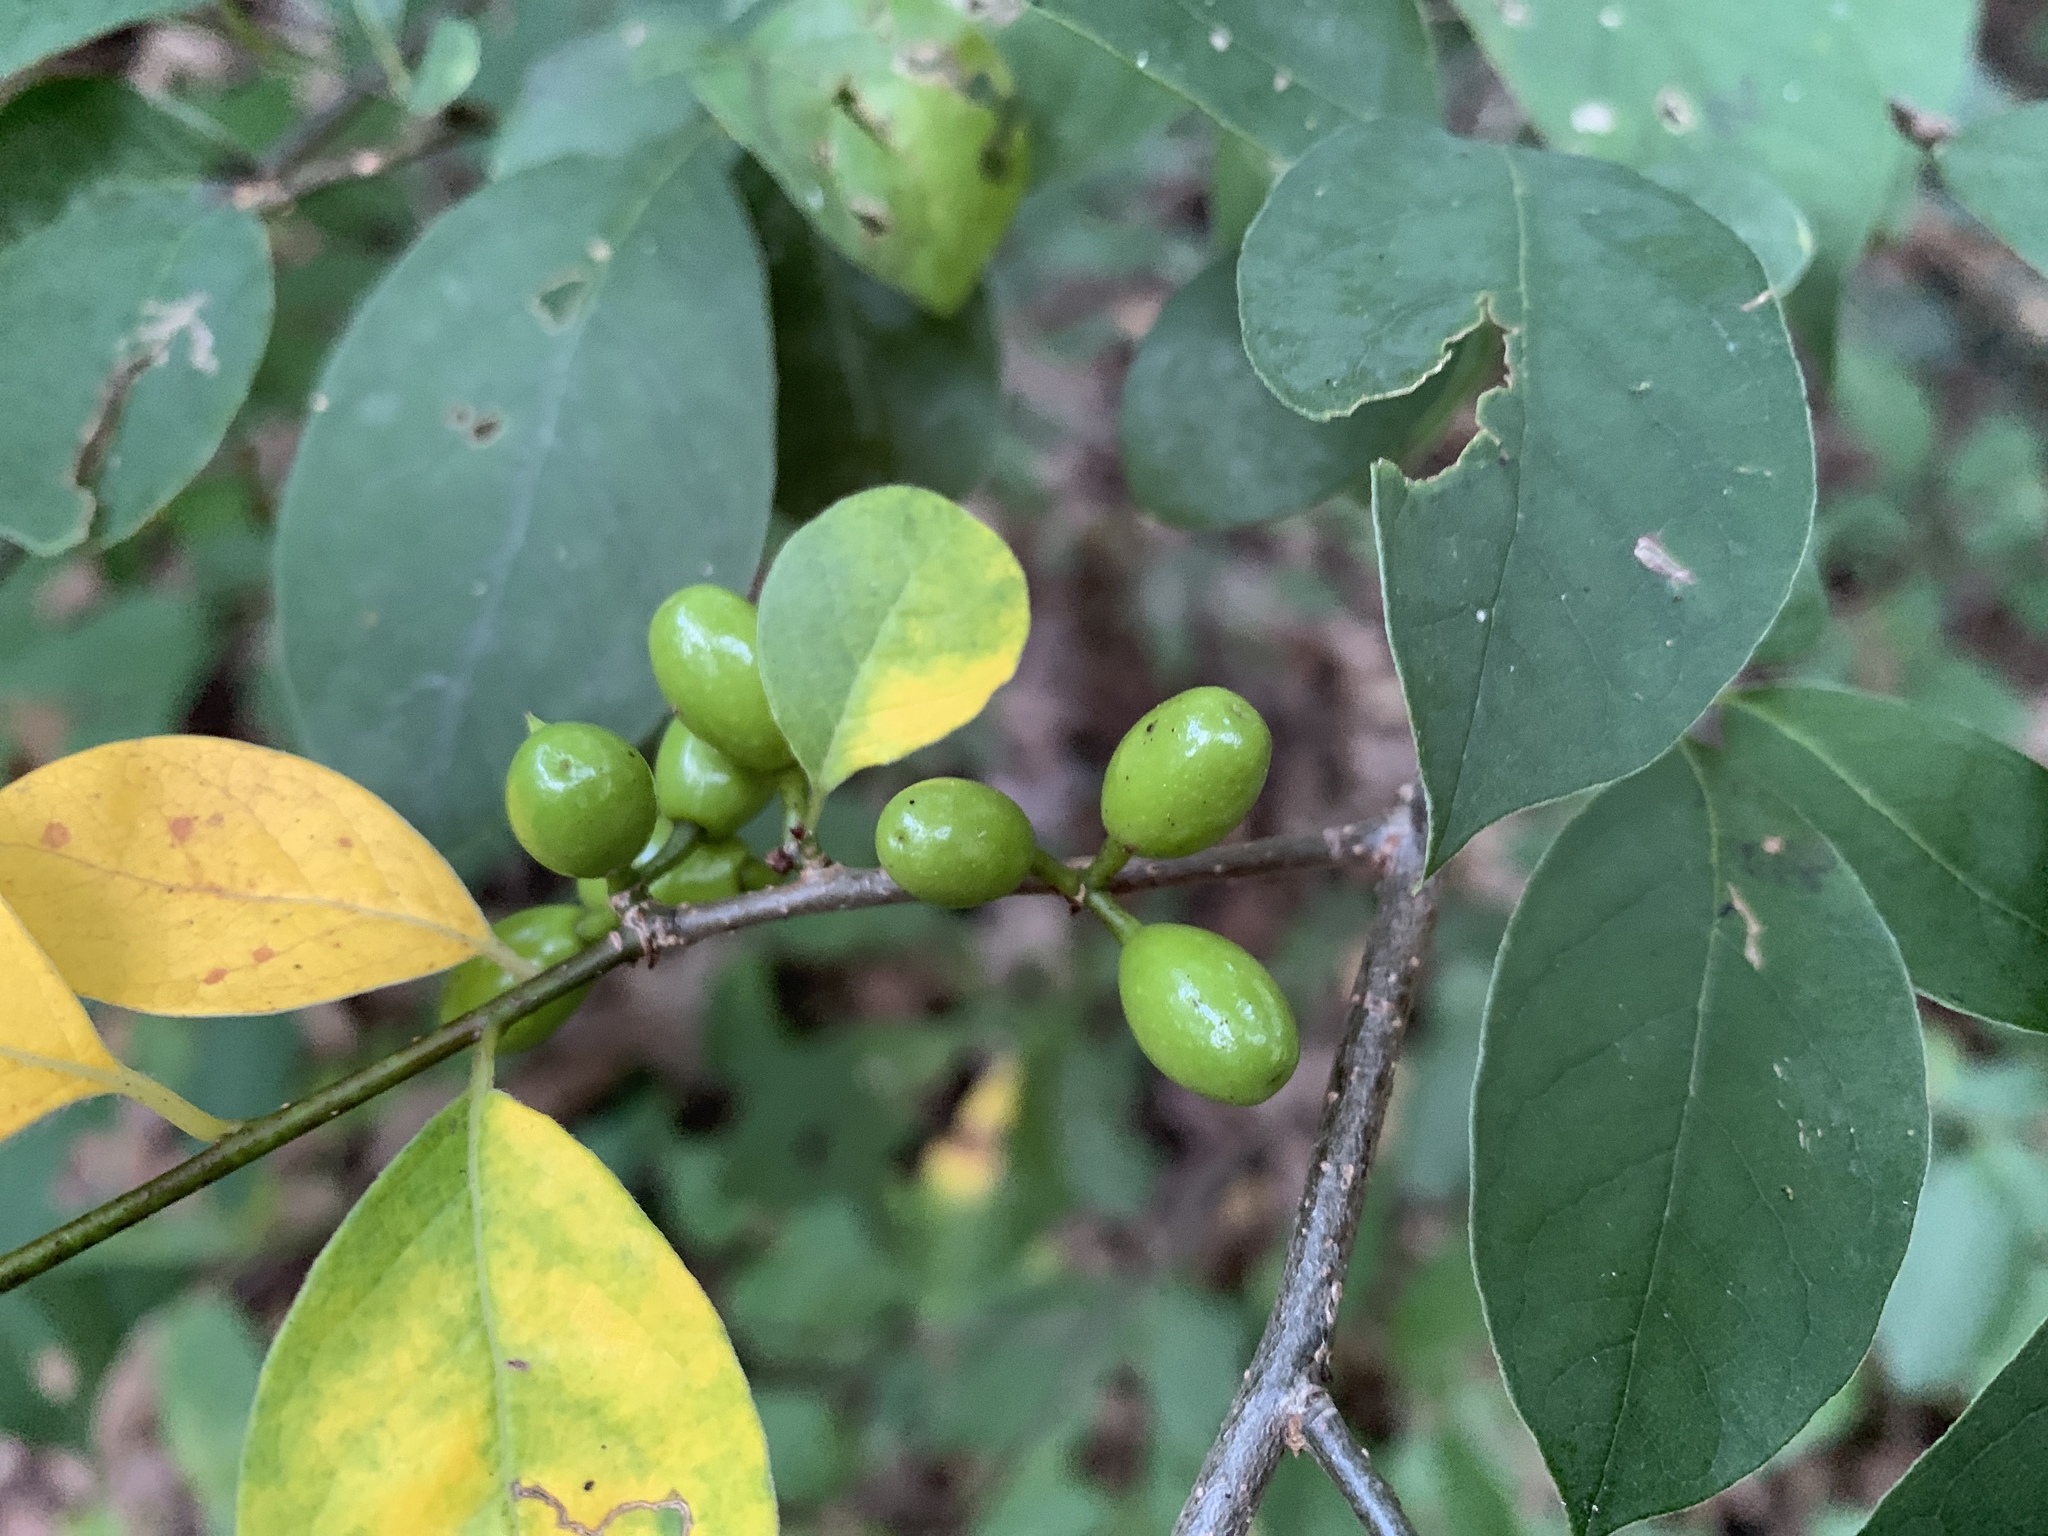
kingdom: Plantae
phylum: Tracheophyta
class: Magnoliopsida
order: Laurales
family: Lauraceae
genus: Lindera
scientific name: Lindera benzoin
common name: Spicebush
